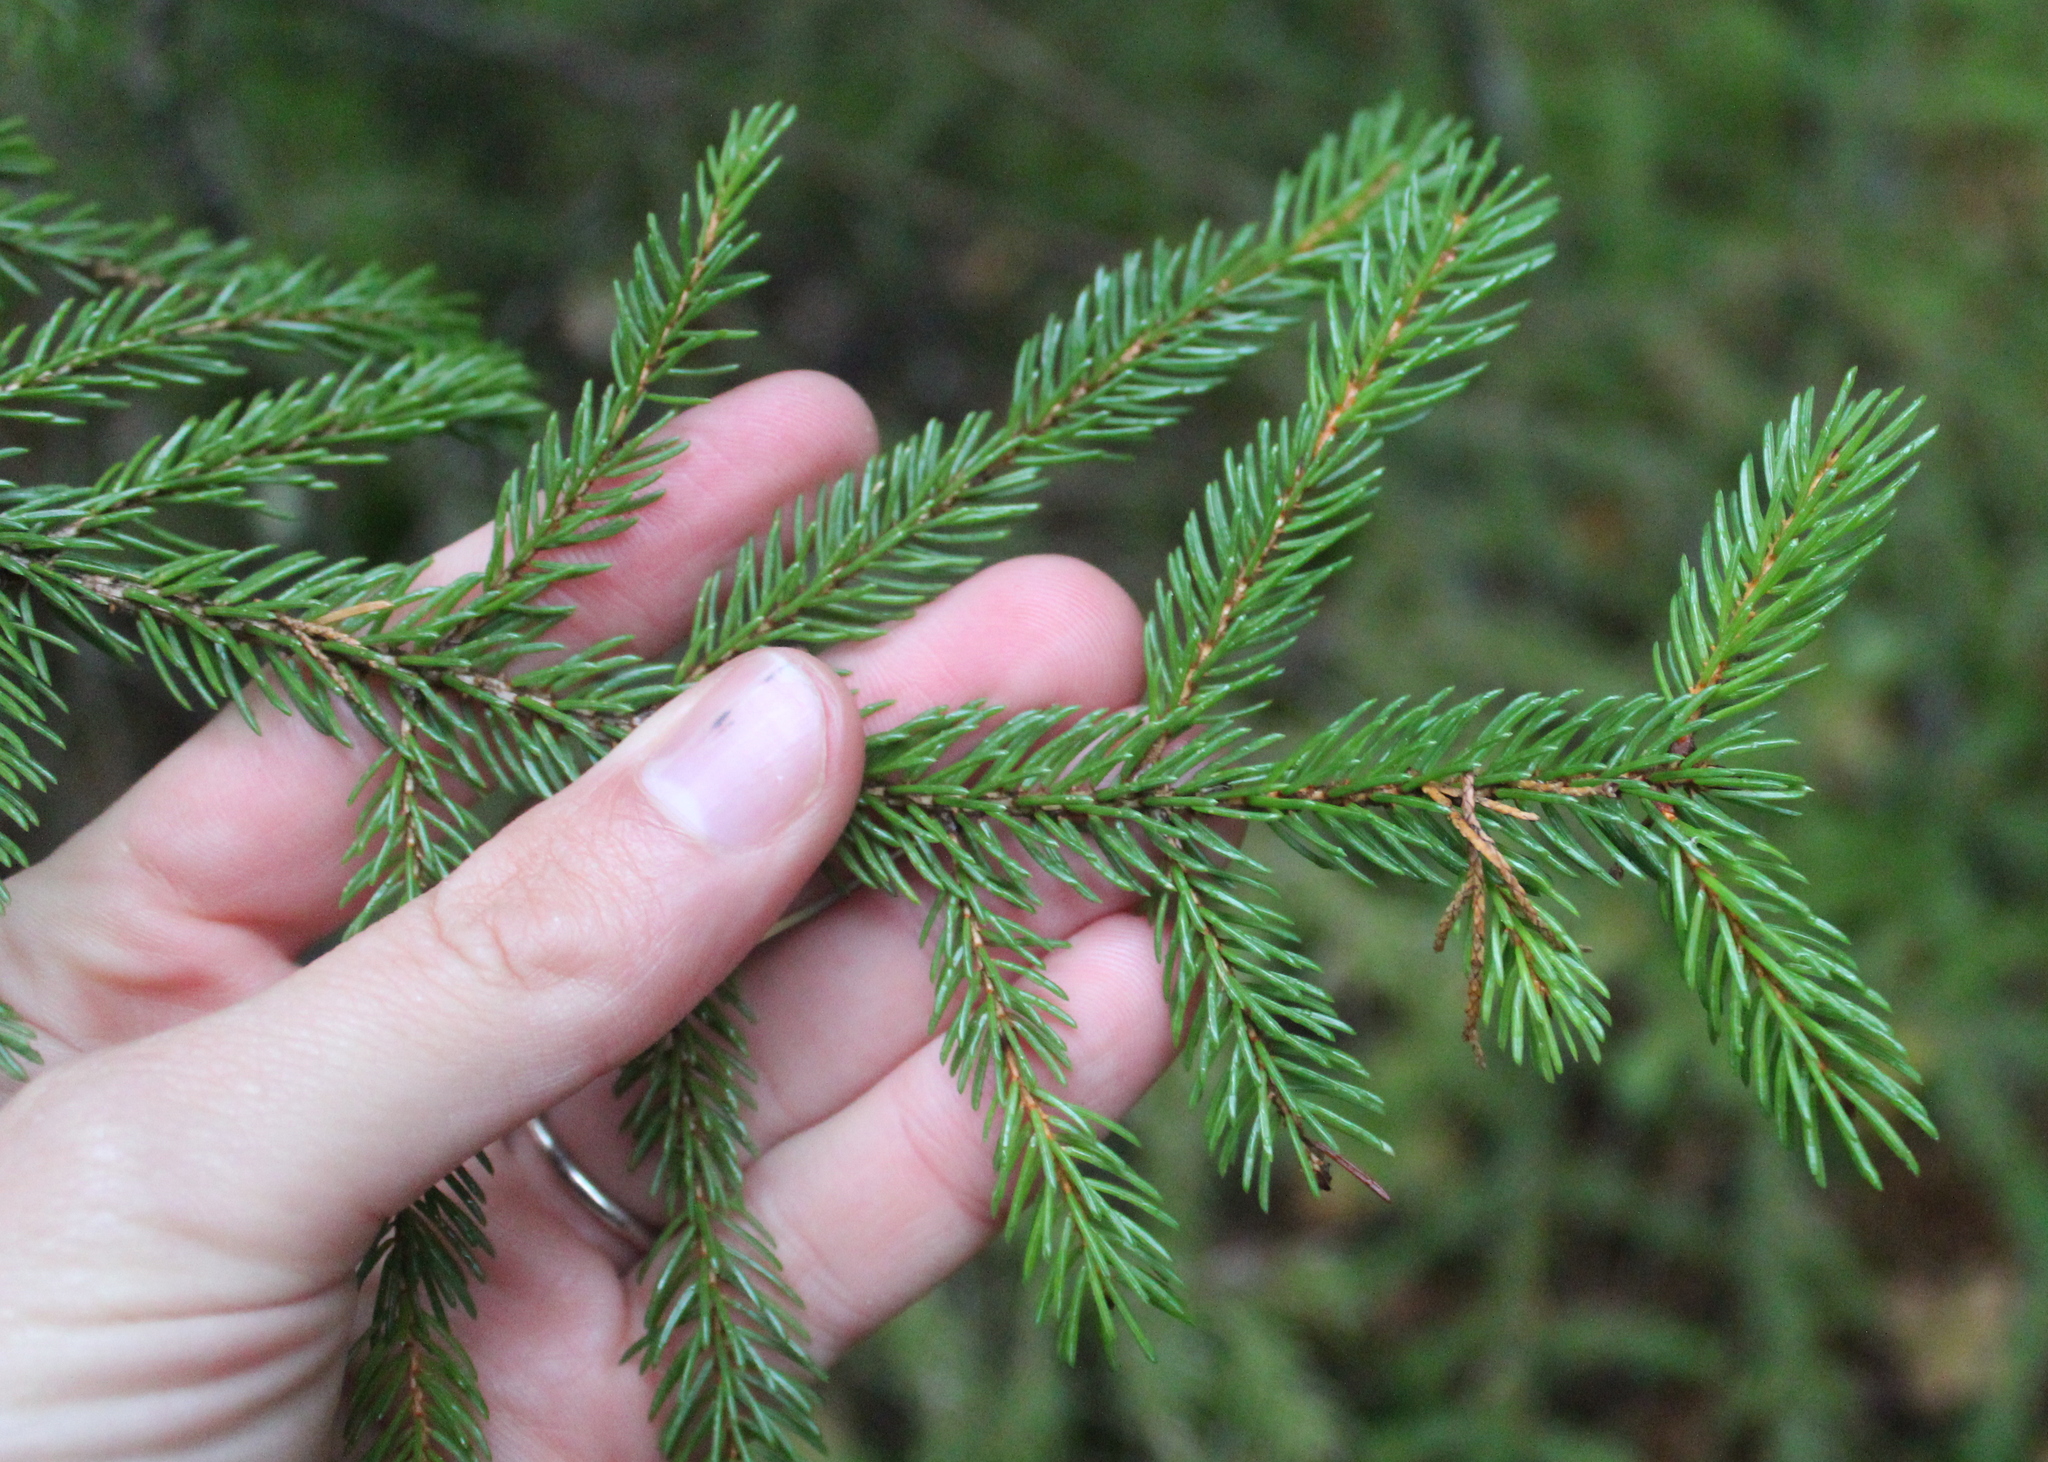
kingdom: Plantae
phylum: Tracheophyta
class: Pinopsida
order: Pinales
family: Pinaceae
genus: Picea
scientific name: Picea rubens
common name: Red spruce
